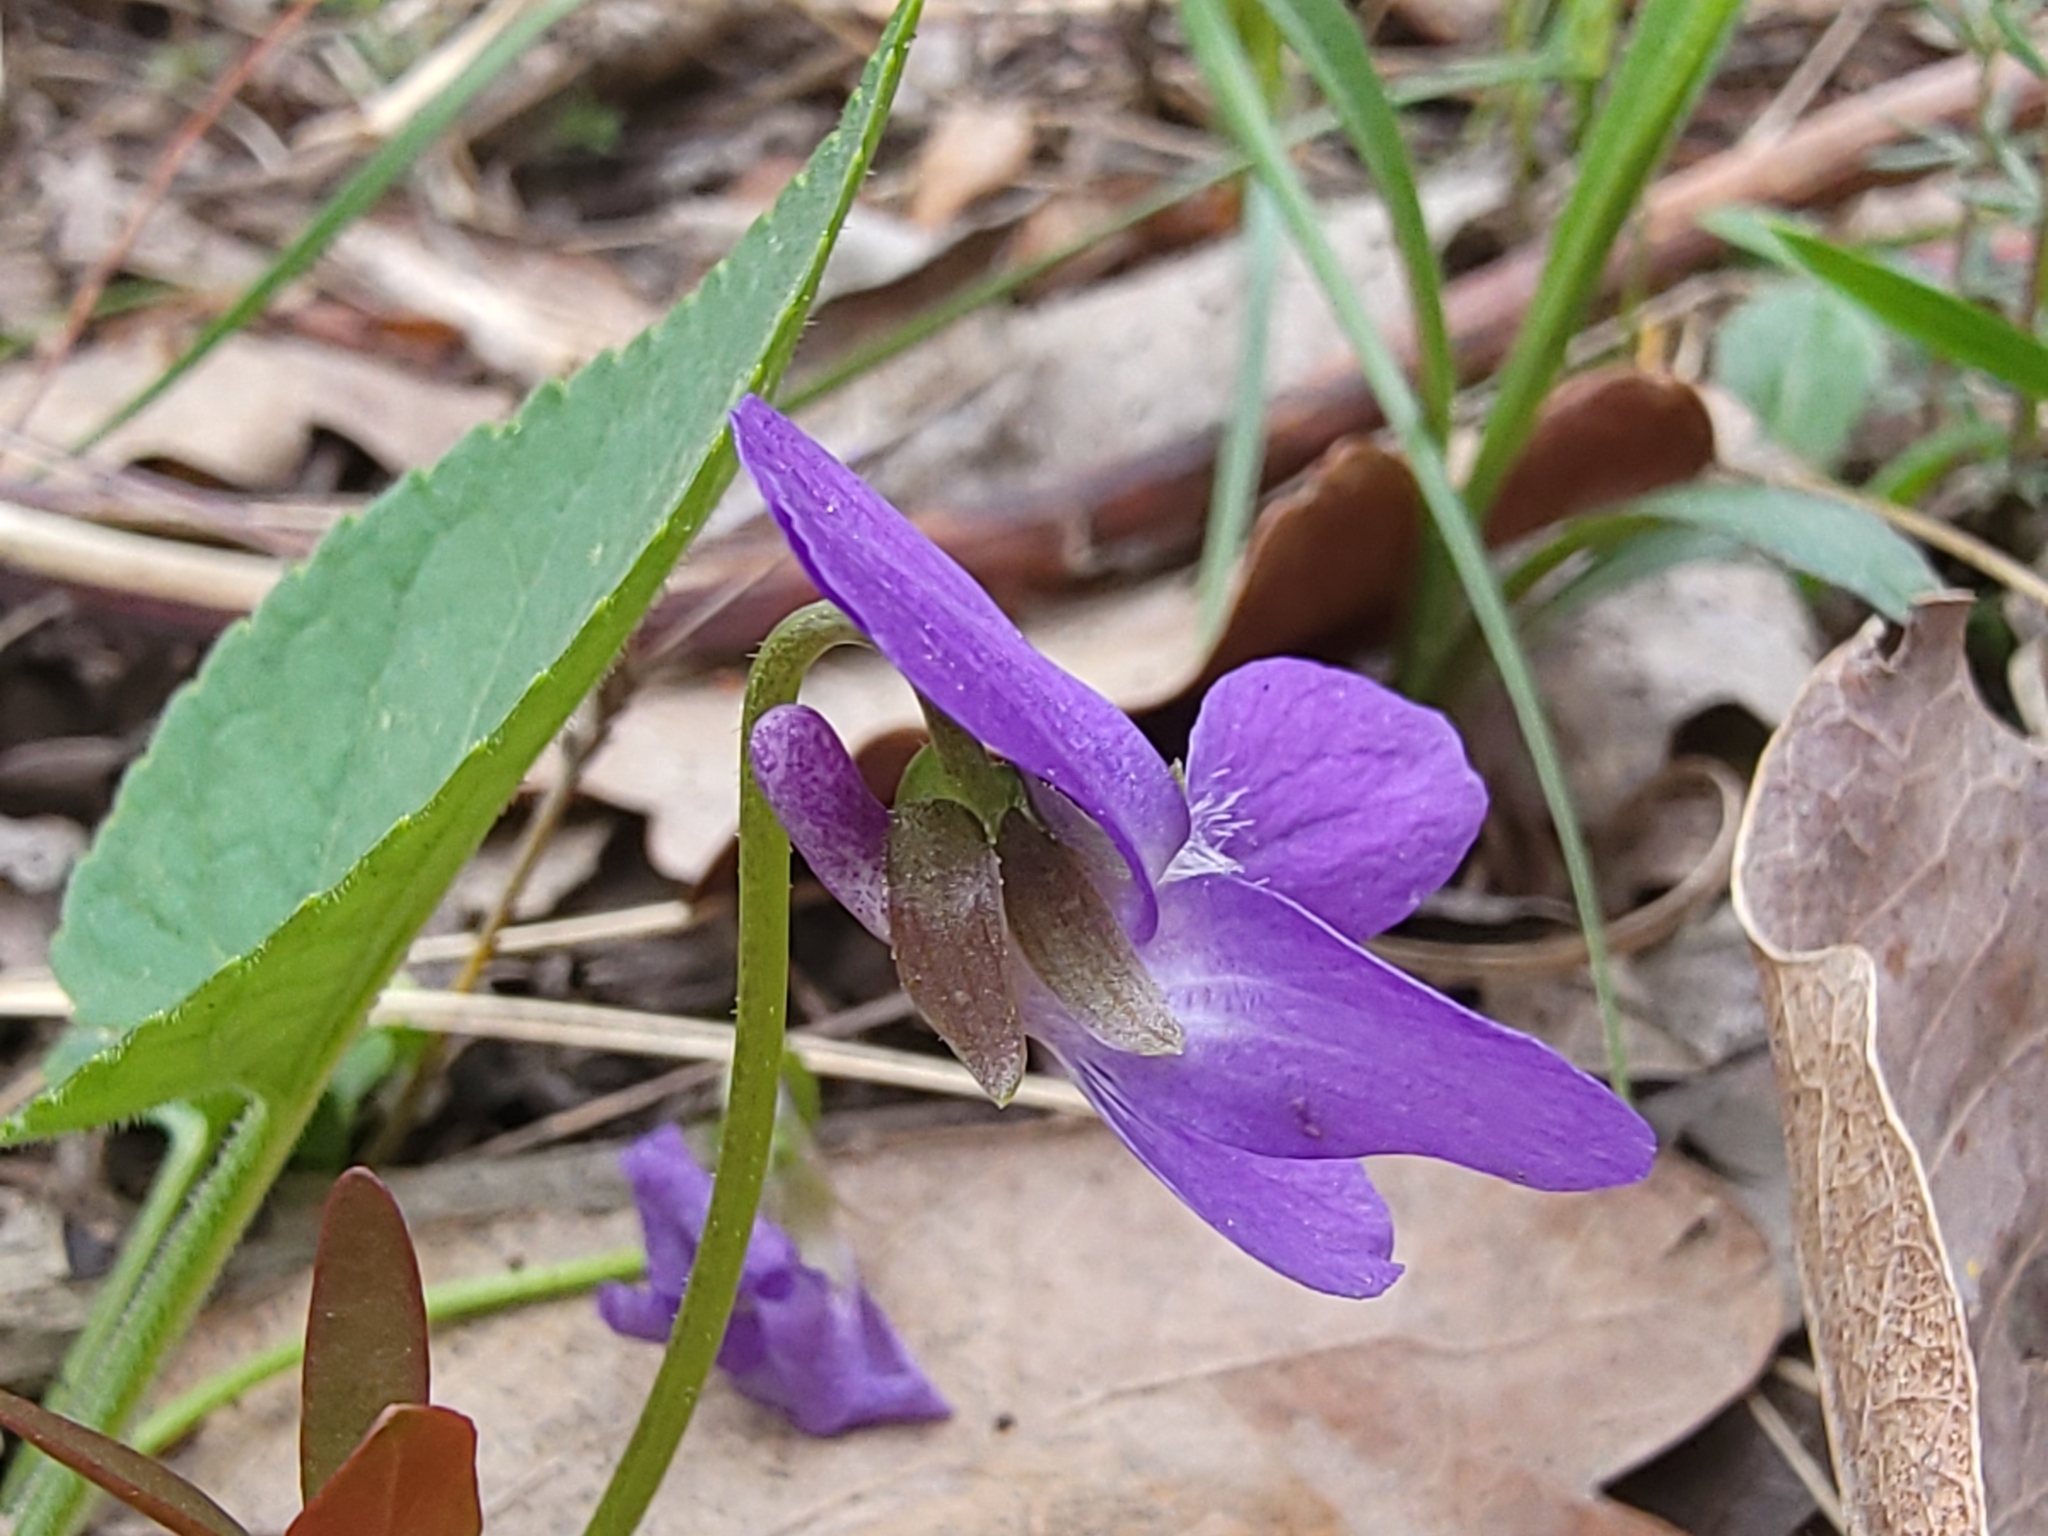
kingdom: Plantae
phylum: Tracheophyta
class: Magnoliopsida
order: Malpighiales
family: Violaceae
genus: Viola
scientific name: Viola hirta
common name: Hairy violet
